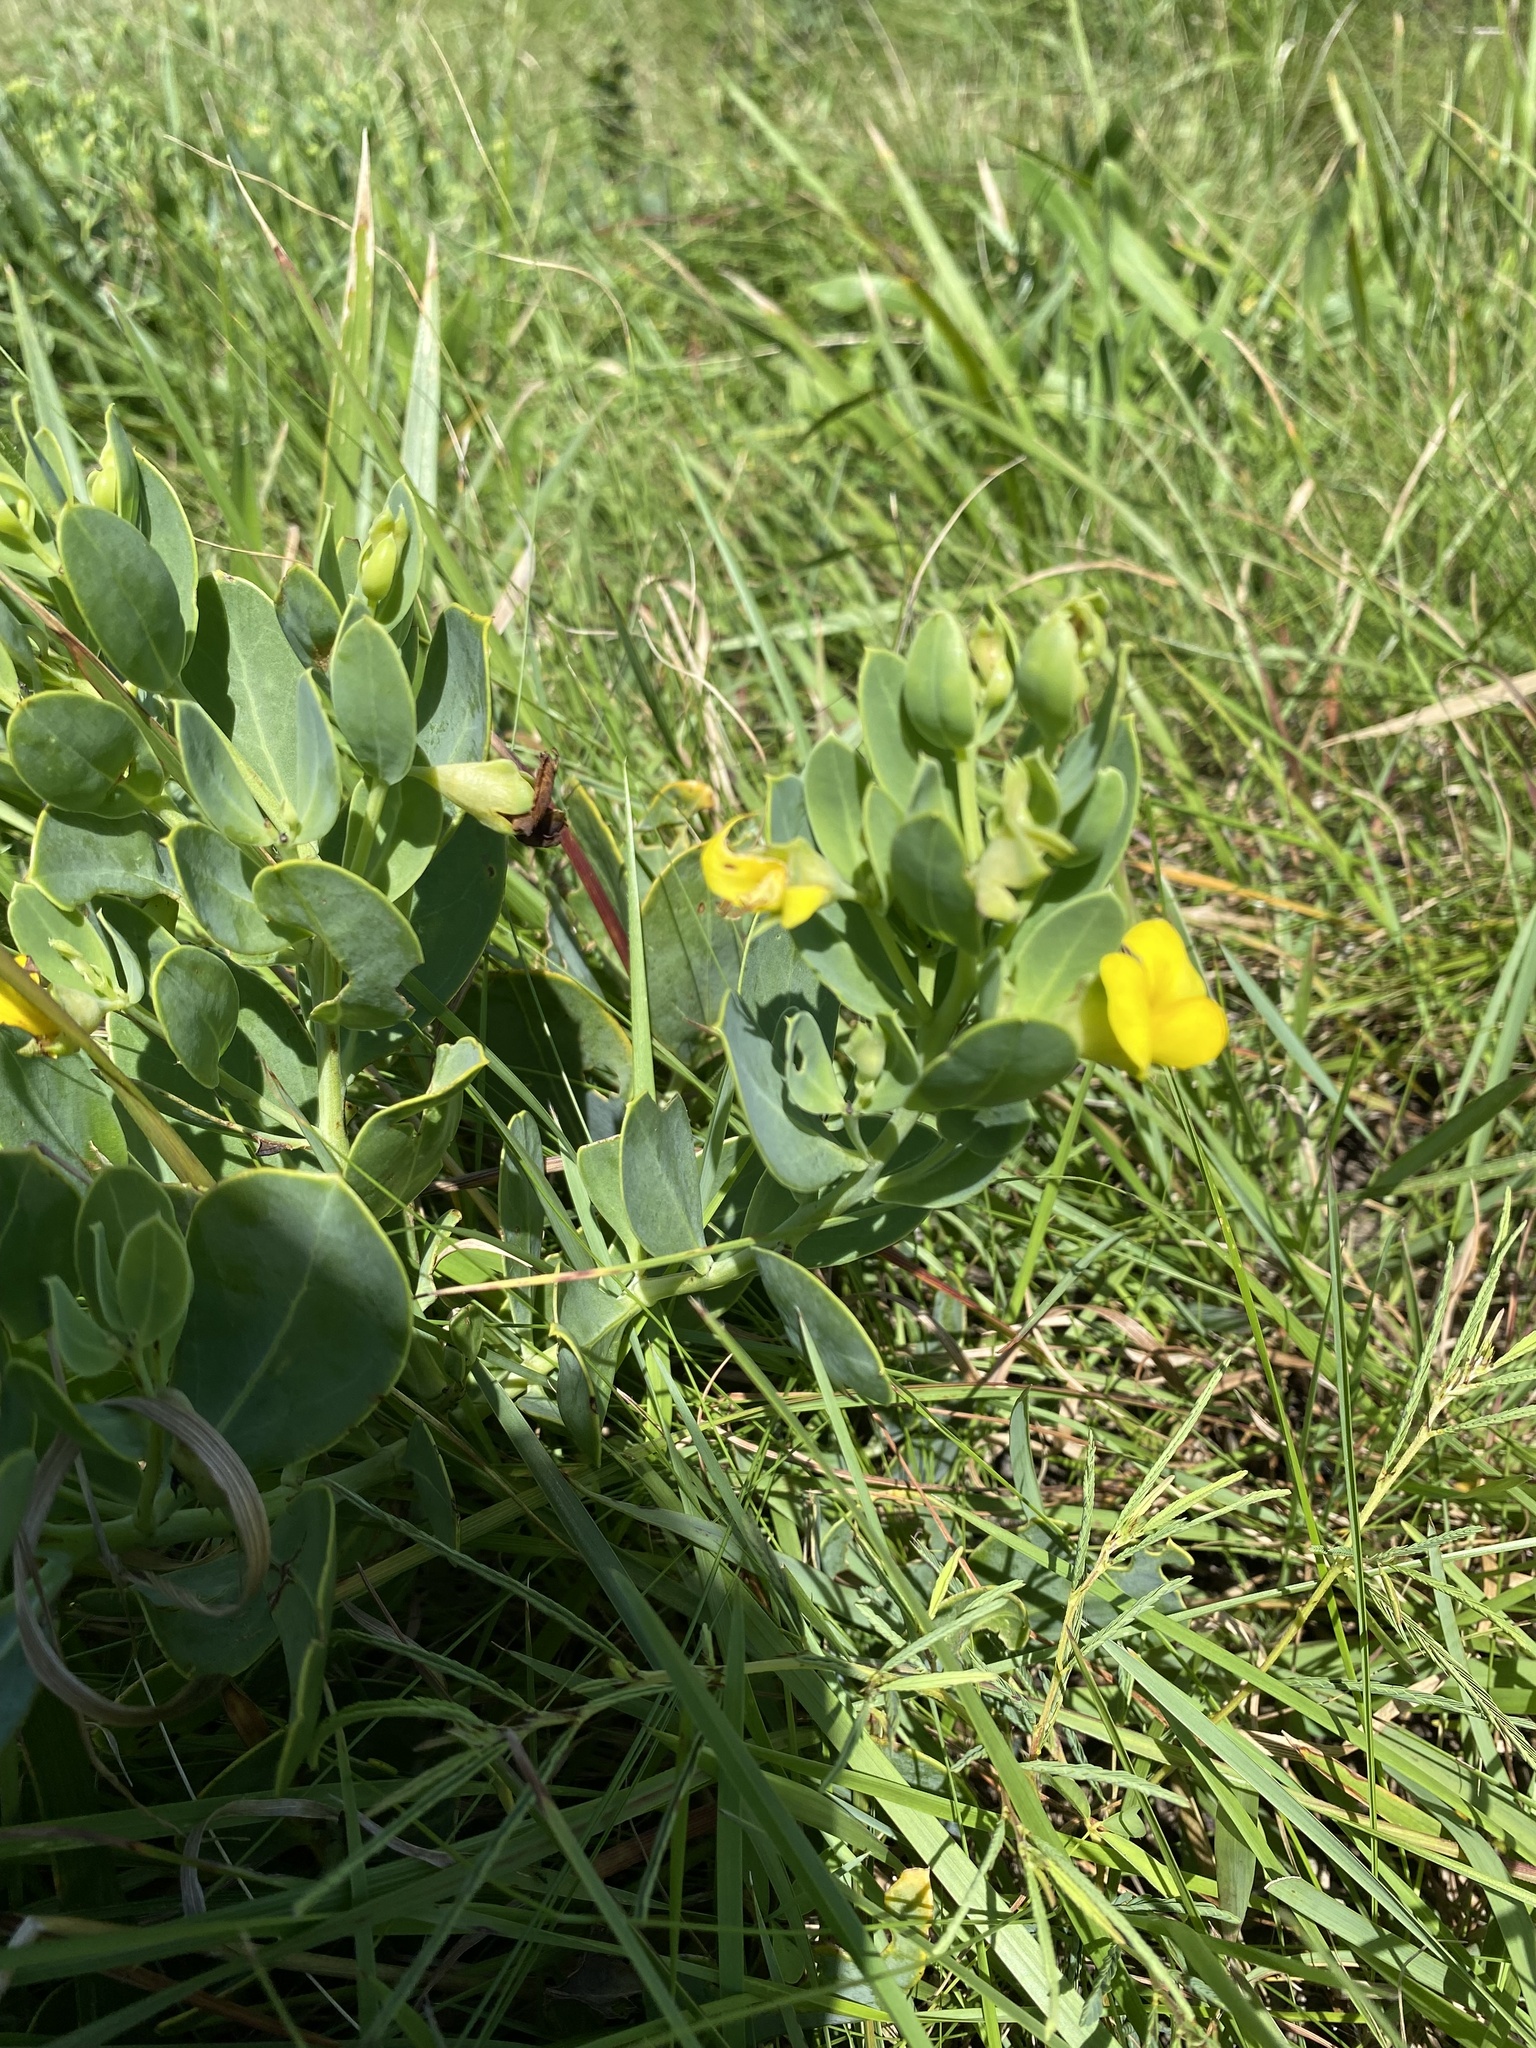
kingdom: Plantae
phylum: Tracheophyta
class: Magnoliopsida
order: Fabales
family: Fabaceae
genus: Rafnia
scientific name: Rafnia elliptica
